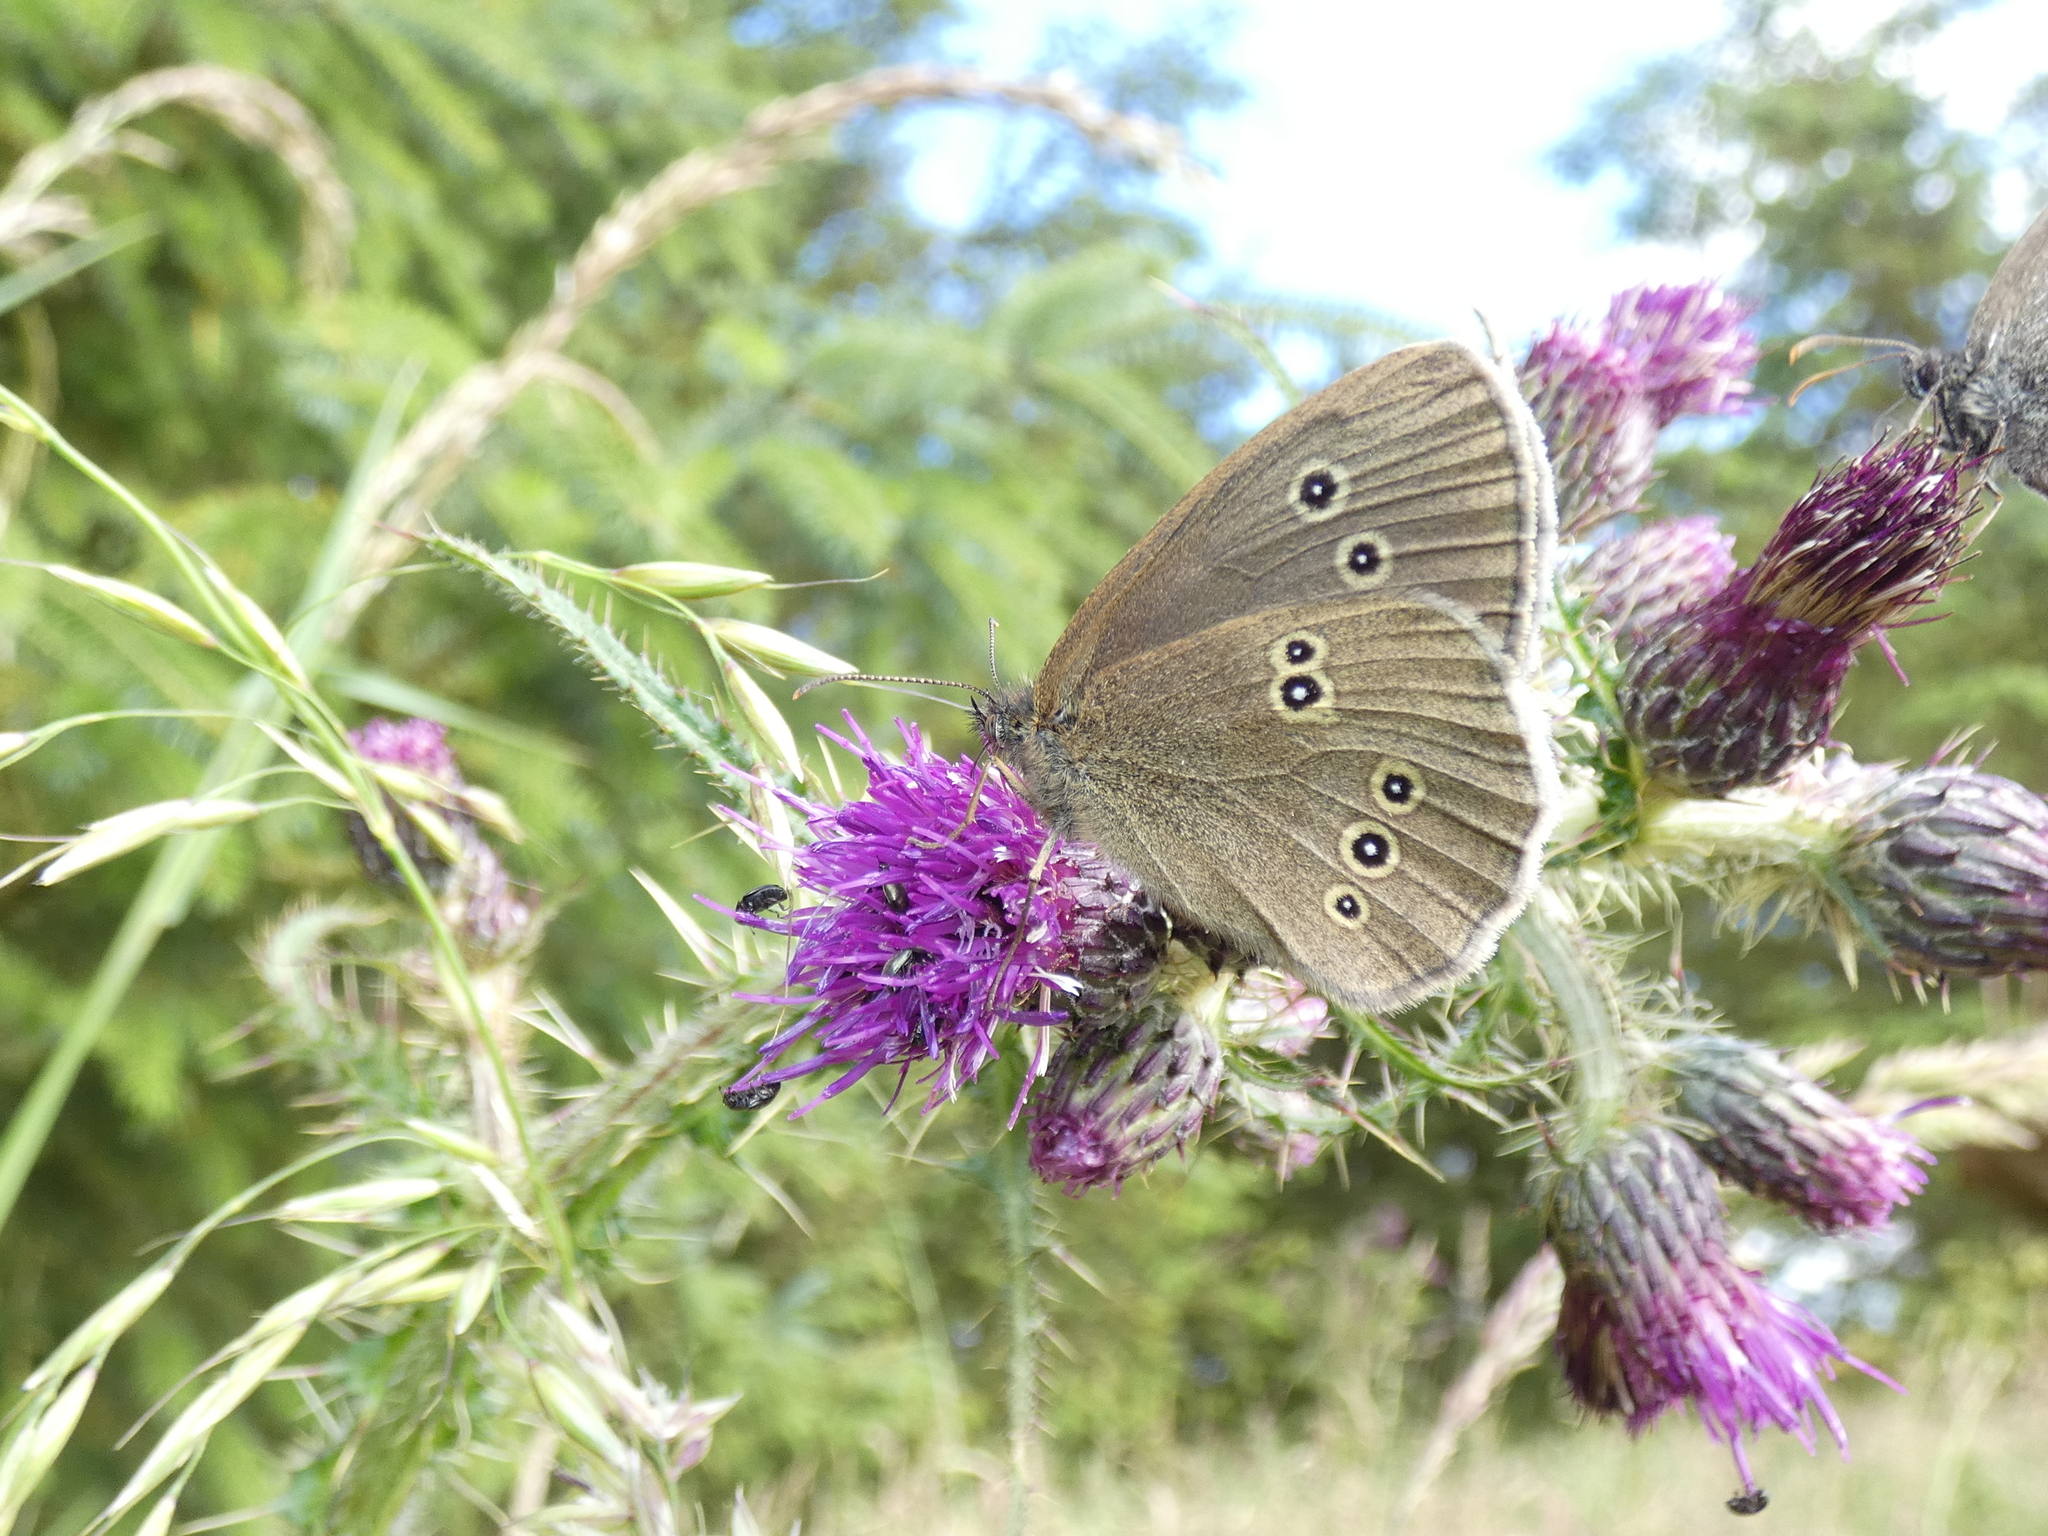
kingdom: Animalia
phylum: Arthropoda
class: Insecta
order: Lepidoptera
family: Nymphalidae
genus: Aphantopus
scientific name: Aphantopus hyperantus
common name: Ringlet
